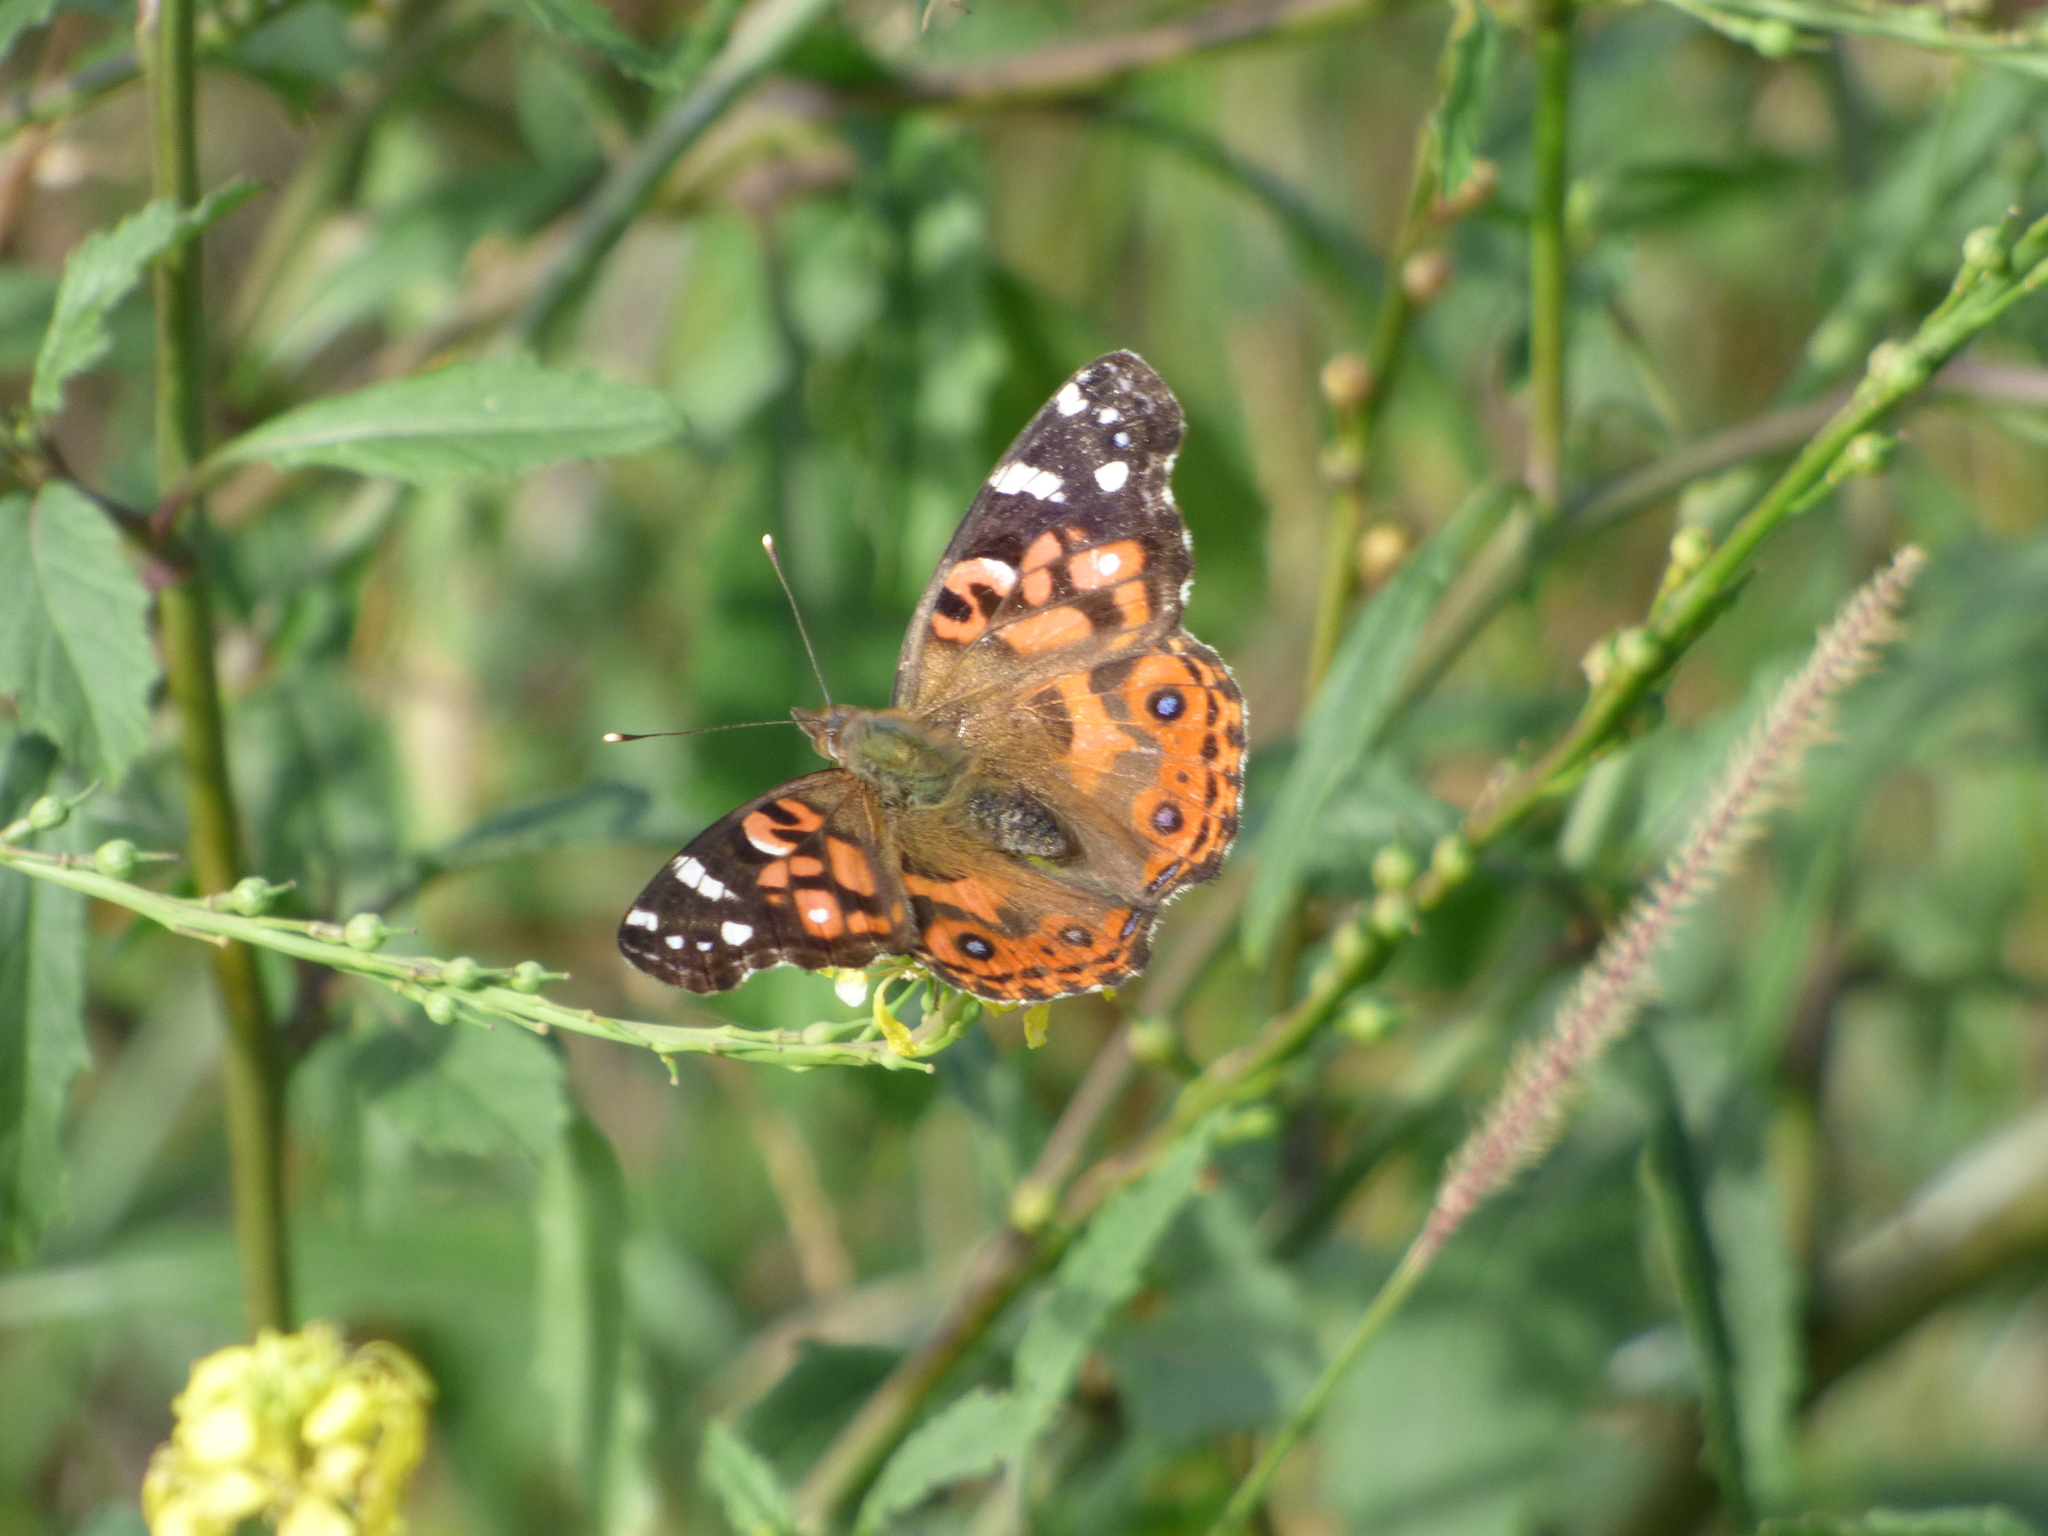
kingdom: Animalia
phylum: Arthropoda
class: Insecta
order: Lepidoptera
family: Nymphalidae
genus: Vanessa
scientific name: Vanessa braziliensis
